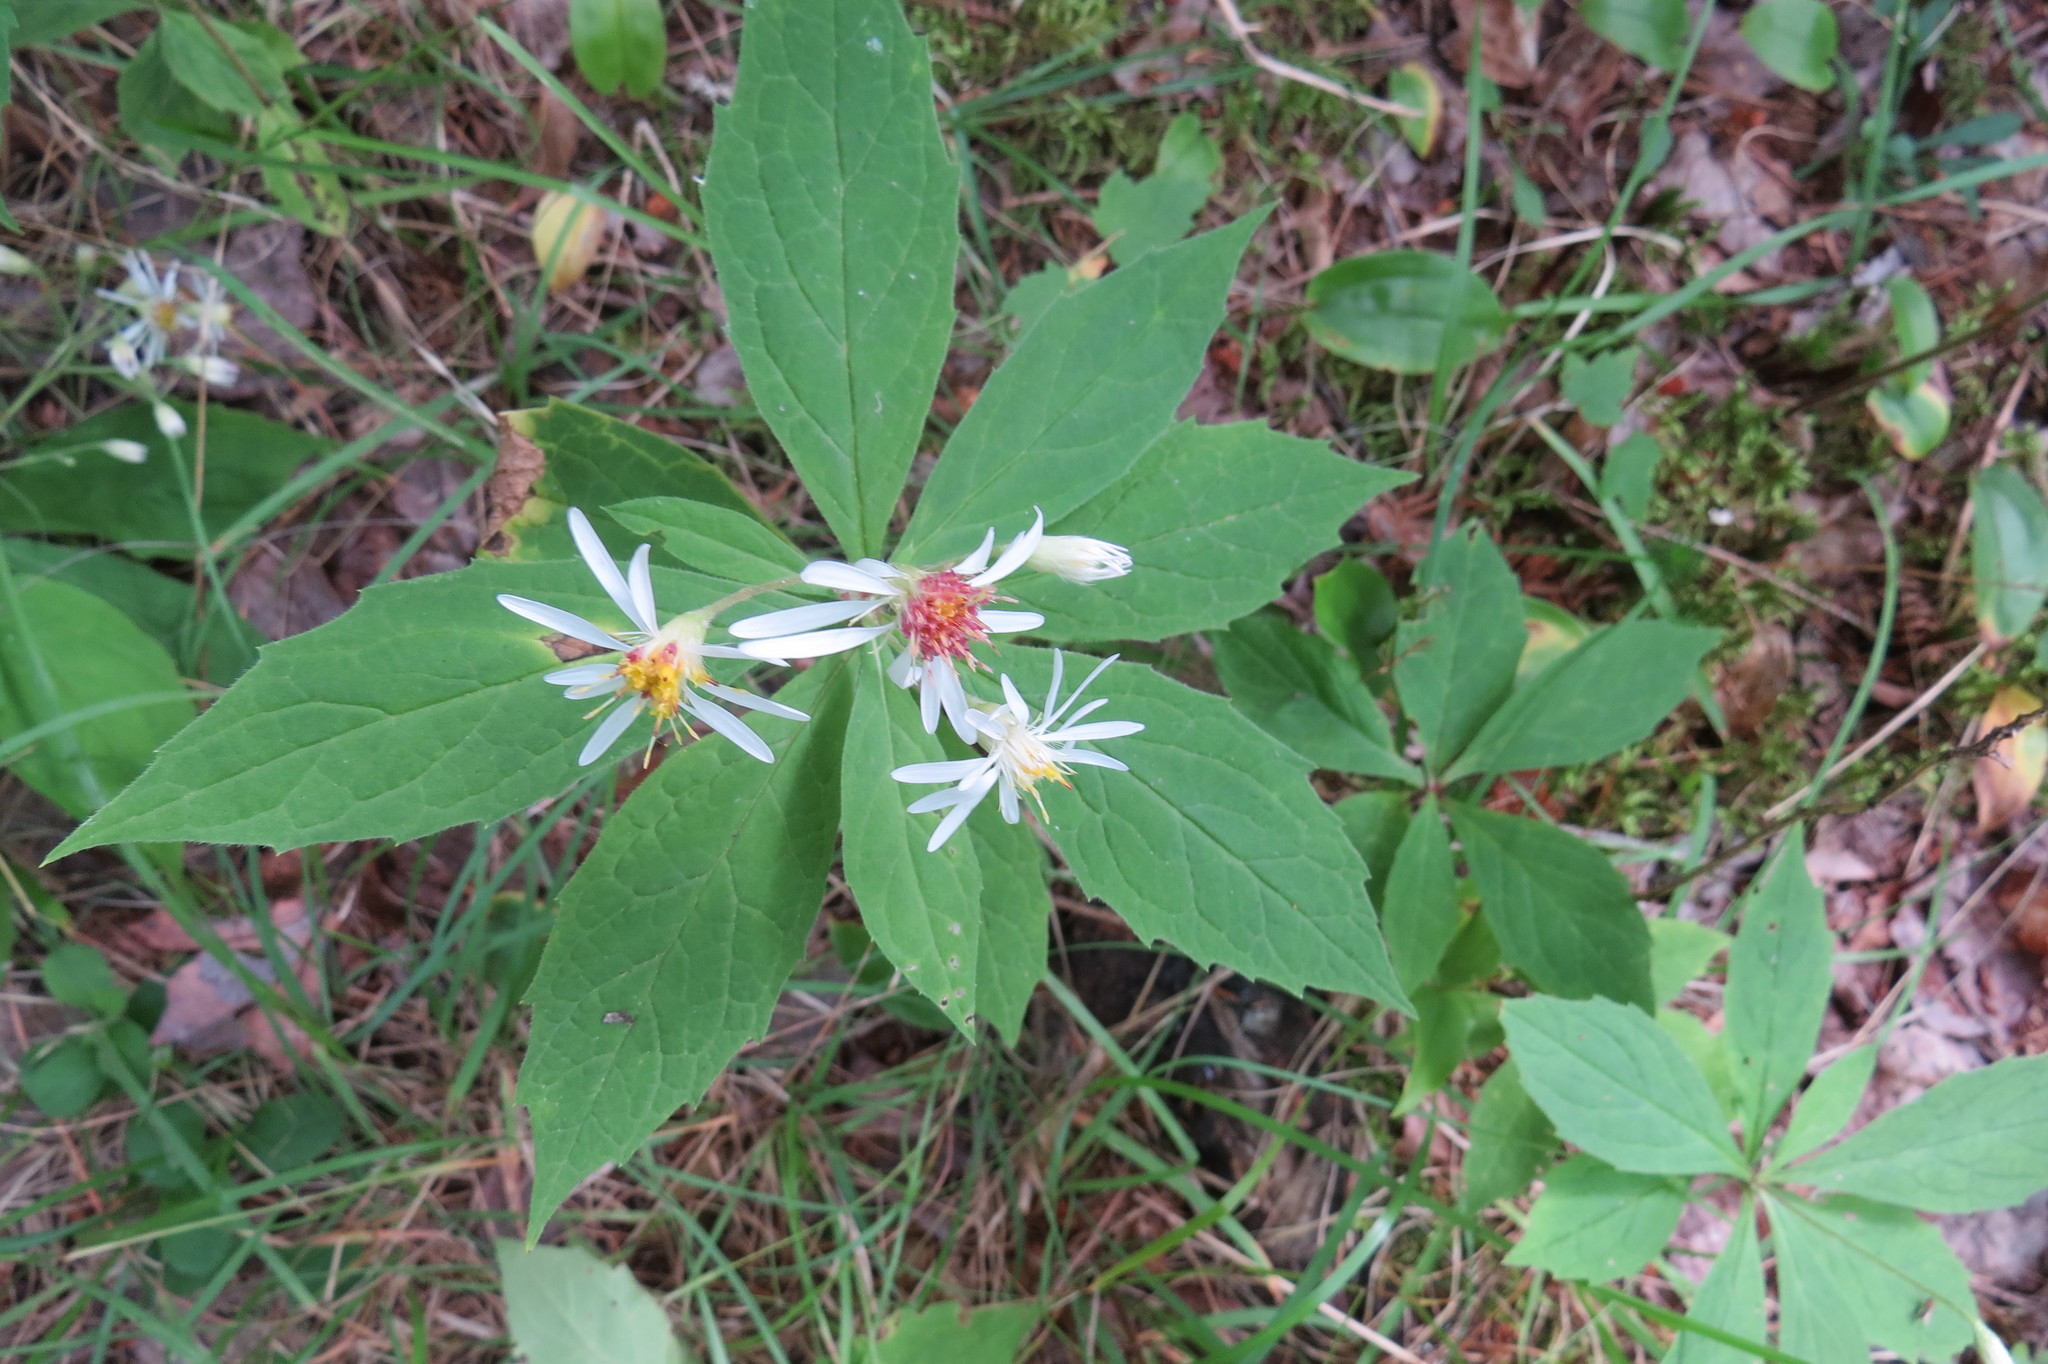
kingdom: Plantae
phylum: Tracheophyta
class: Magnoliopsida
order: Asterales
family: Asteraceae
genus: Oclemena
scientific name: Oclemena acuminata
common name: Mountain aster
